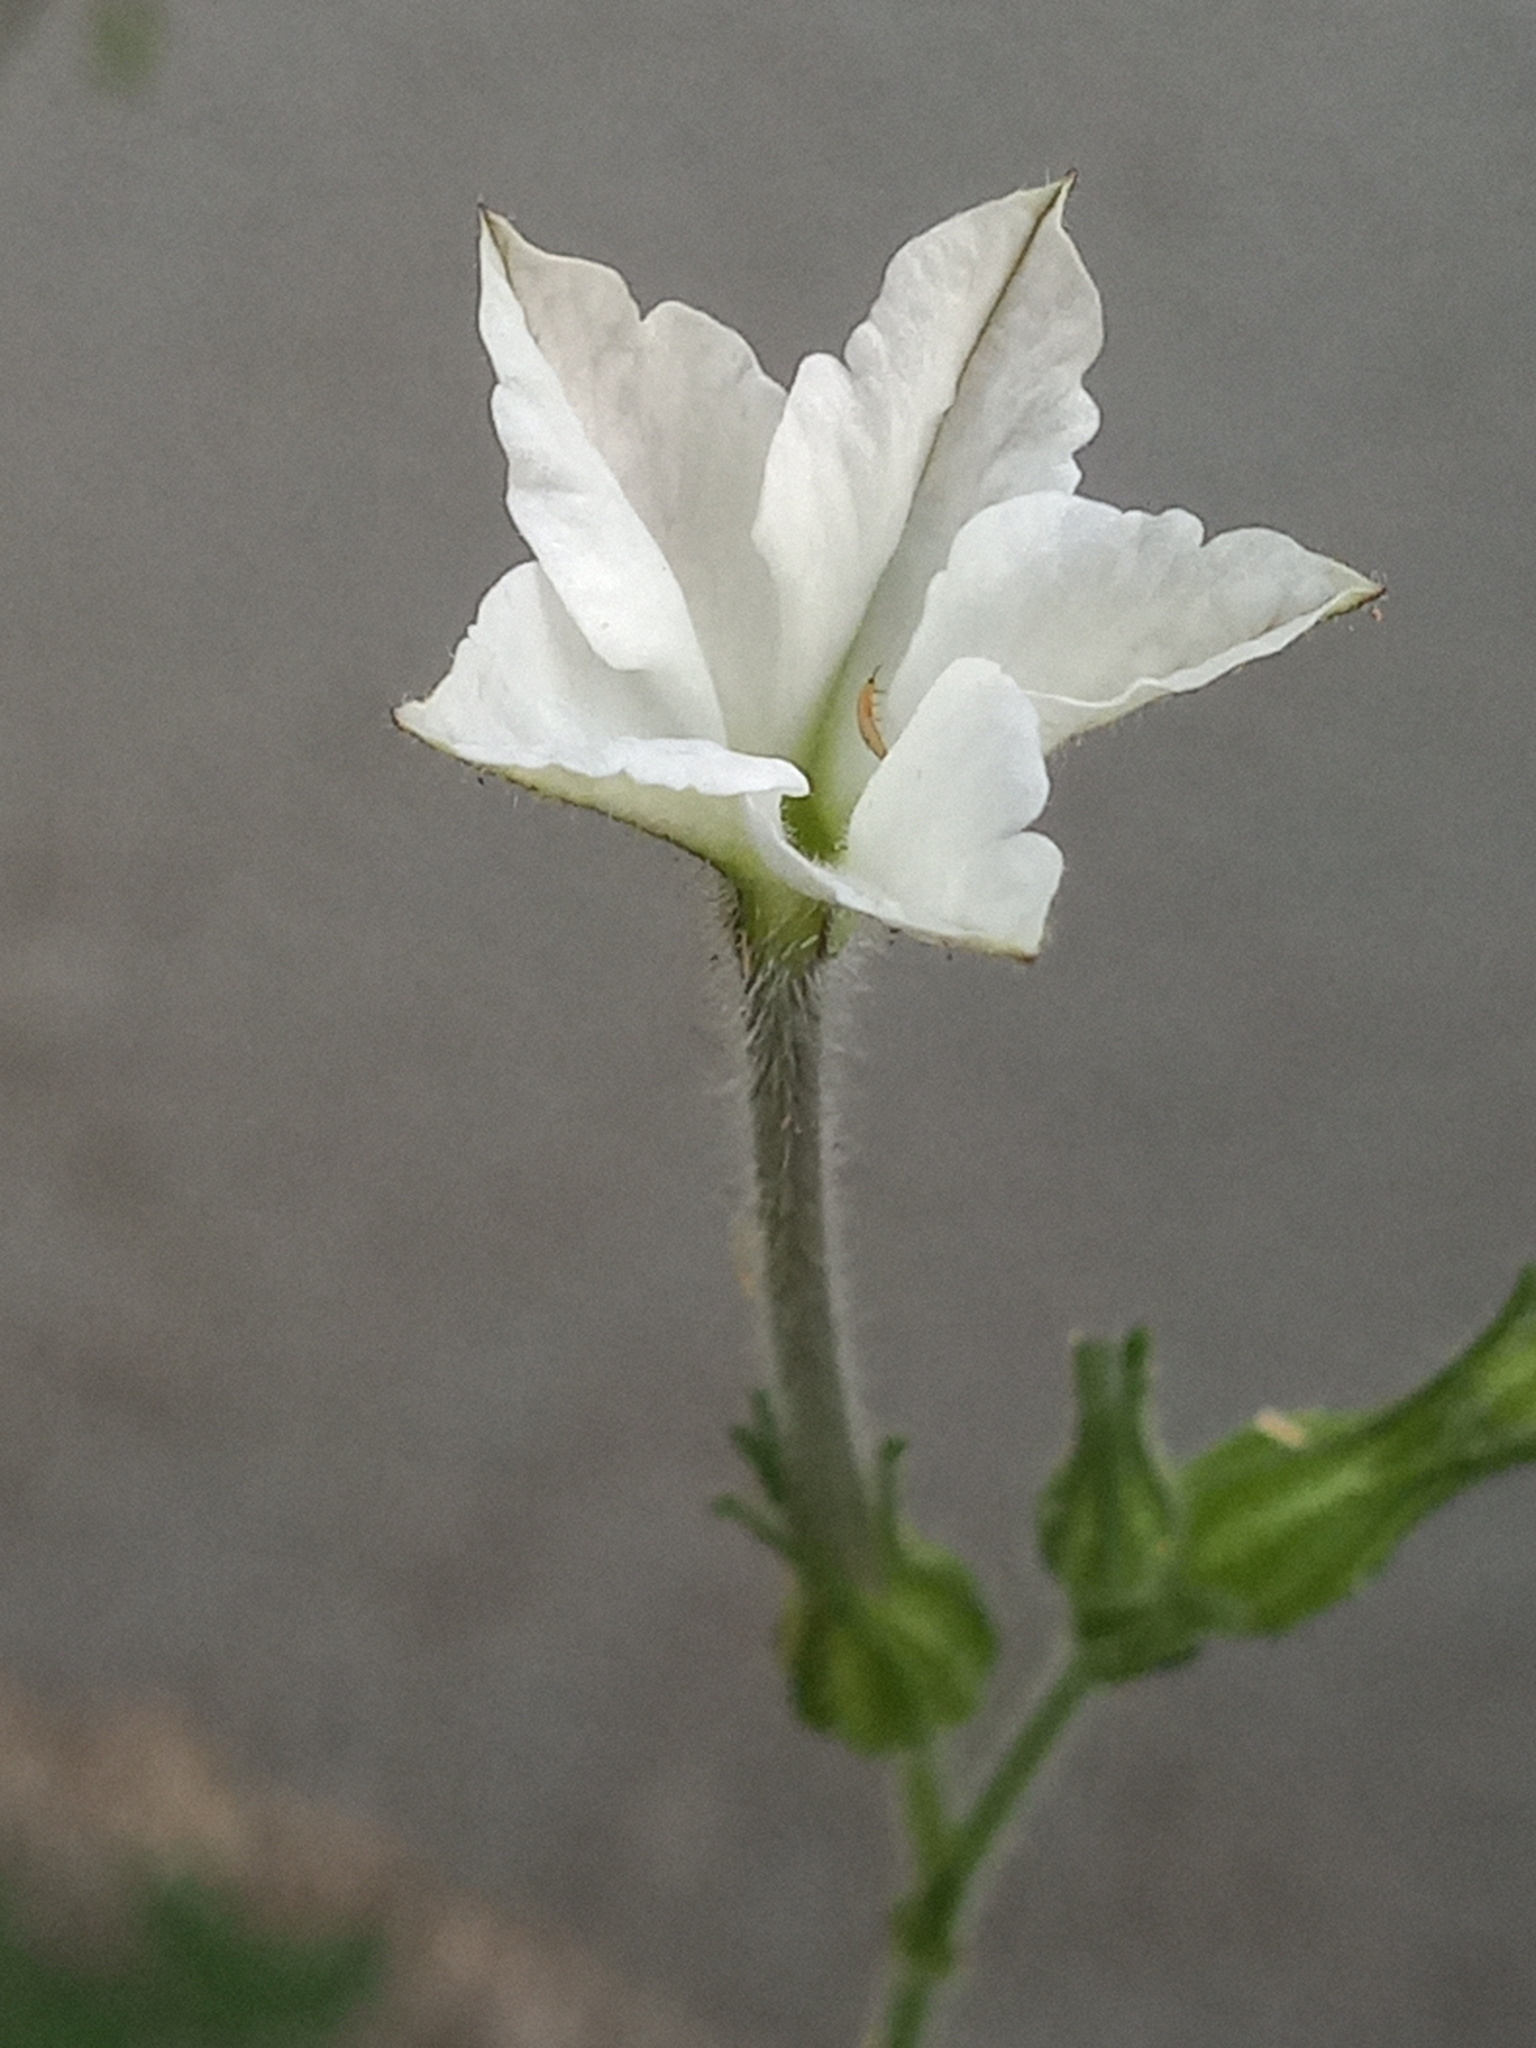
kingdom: Plantae
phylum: Tracheophyta
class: Magnoliopsida
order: Solanales
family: Solanaceae
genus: Nicotiana
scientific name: Nicotiana repanda
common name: Fiddle-leaf tobacco
